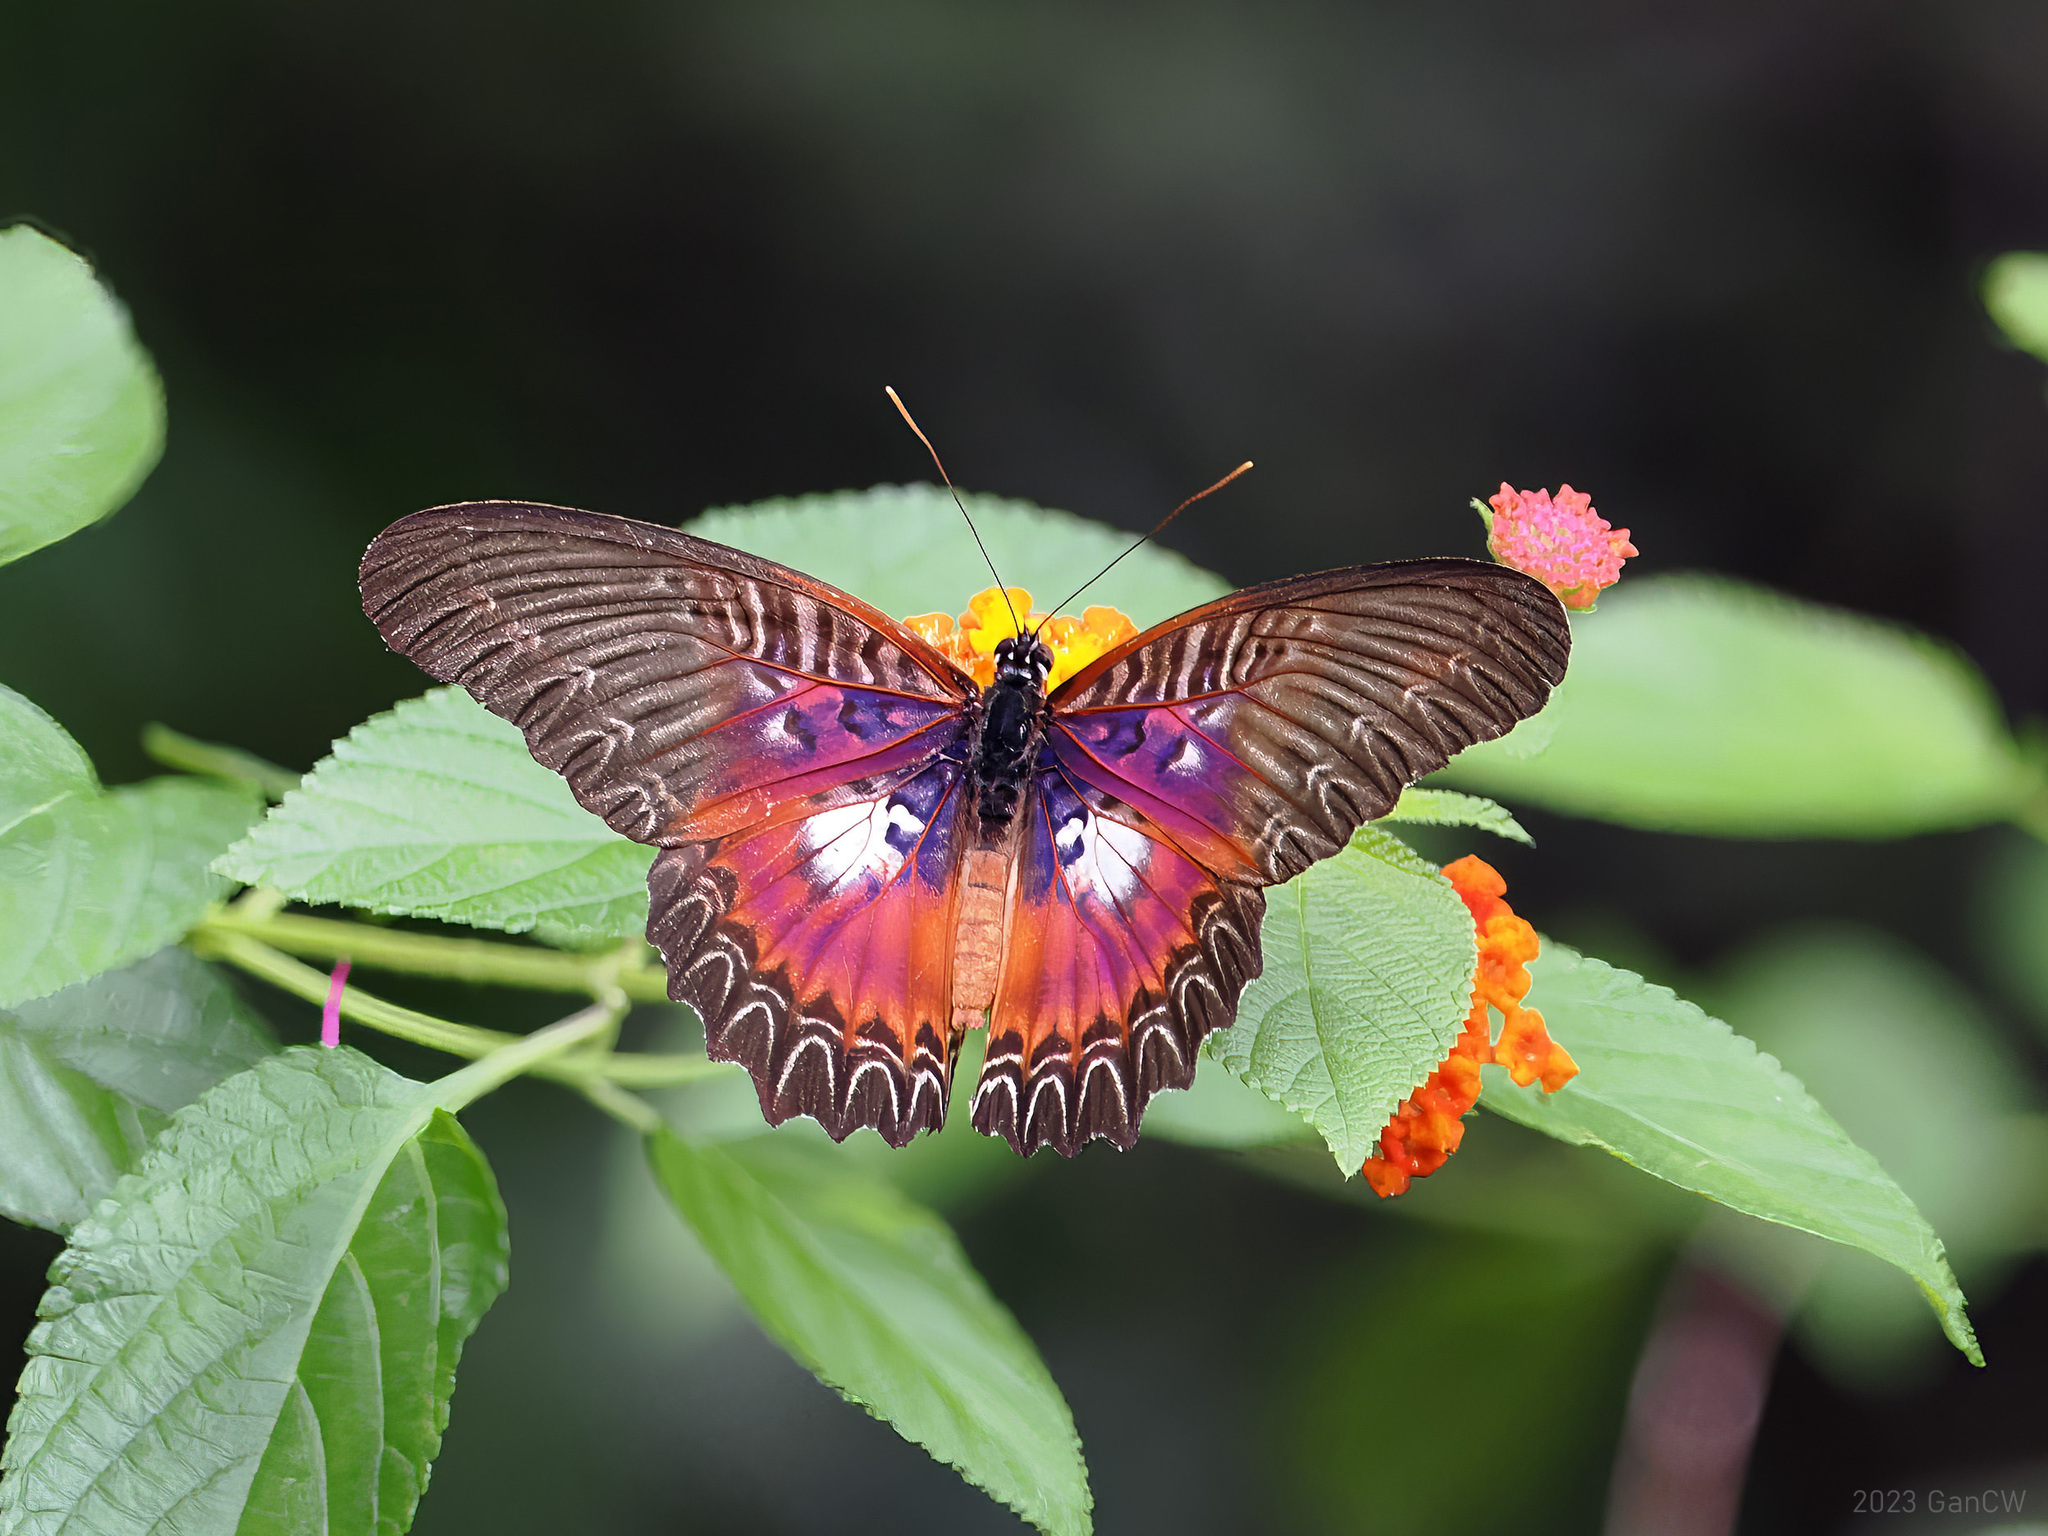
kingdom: Animalia
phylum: Arthropoda
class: Insecta
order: Lepidoptera
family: Nymphalidae
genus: Cethosia
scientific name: Cethosia myrina
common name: Violet lacewing
